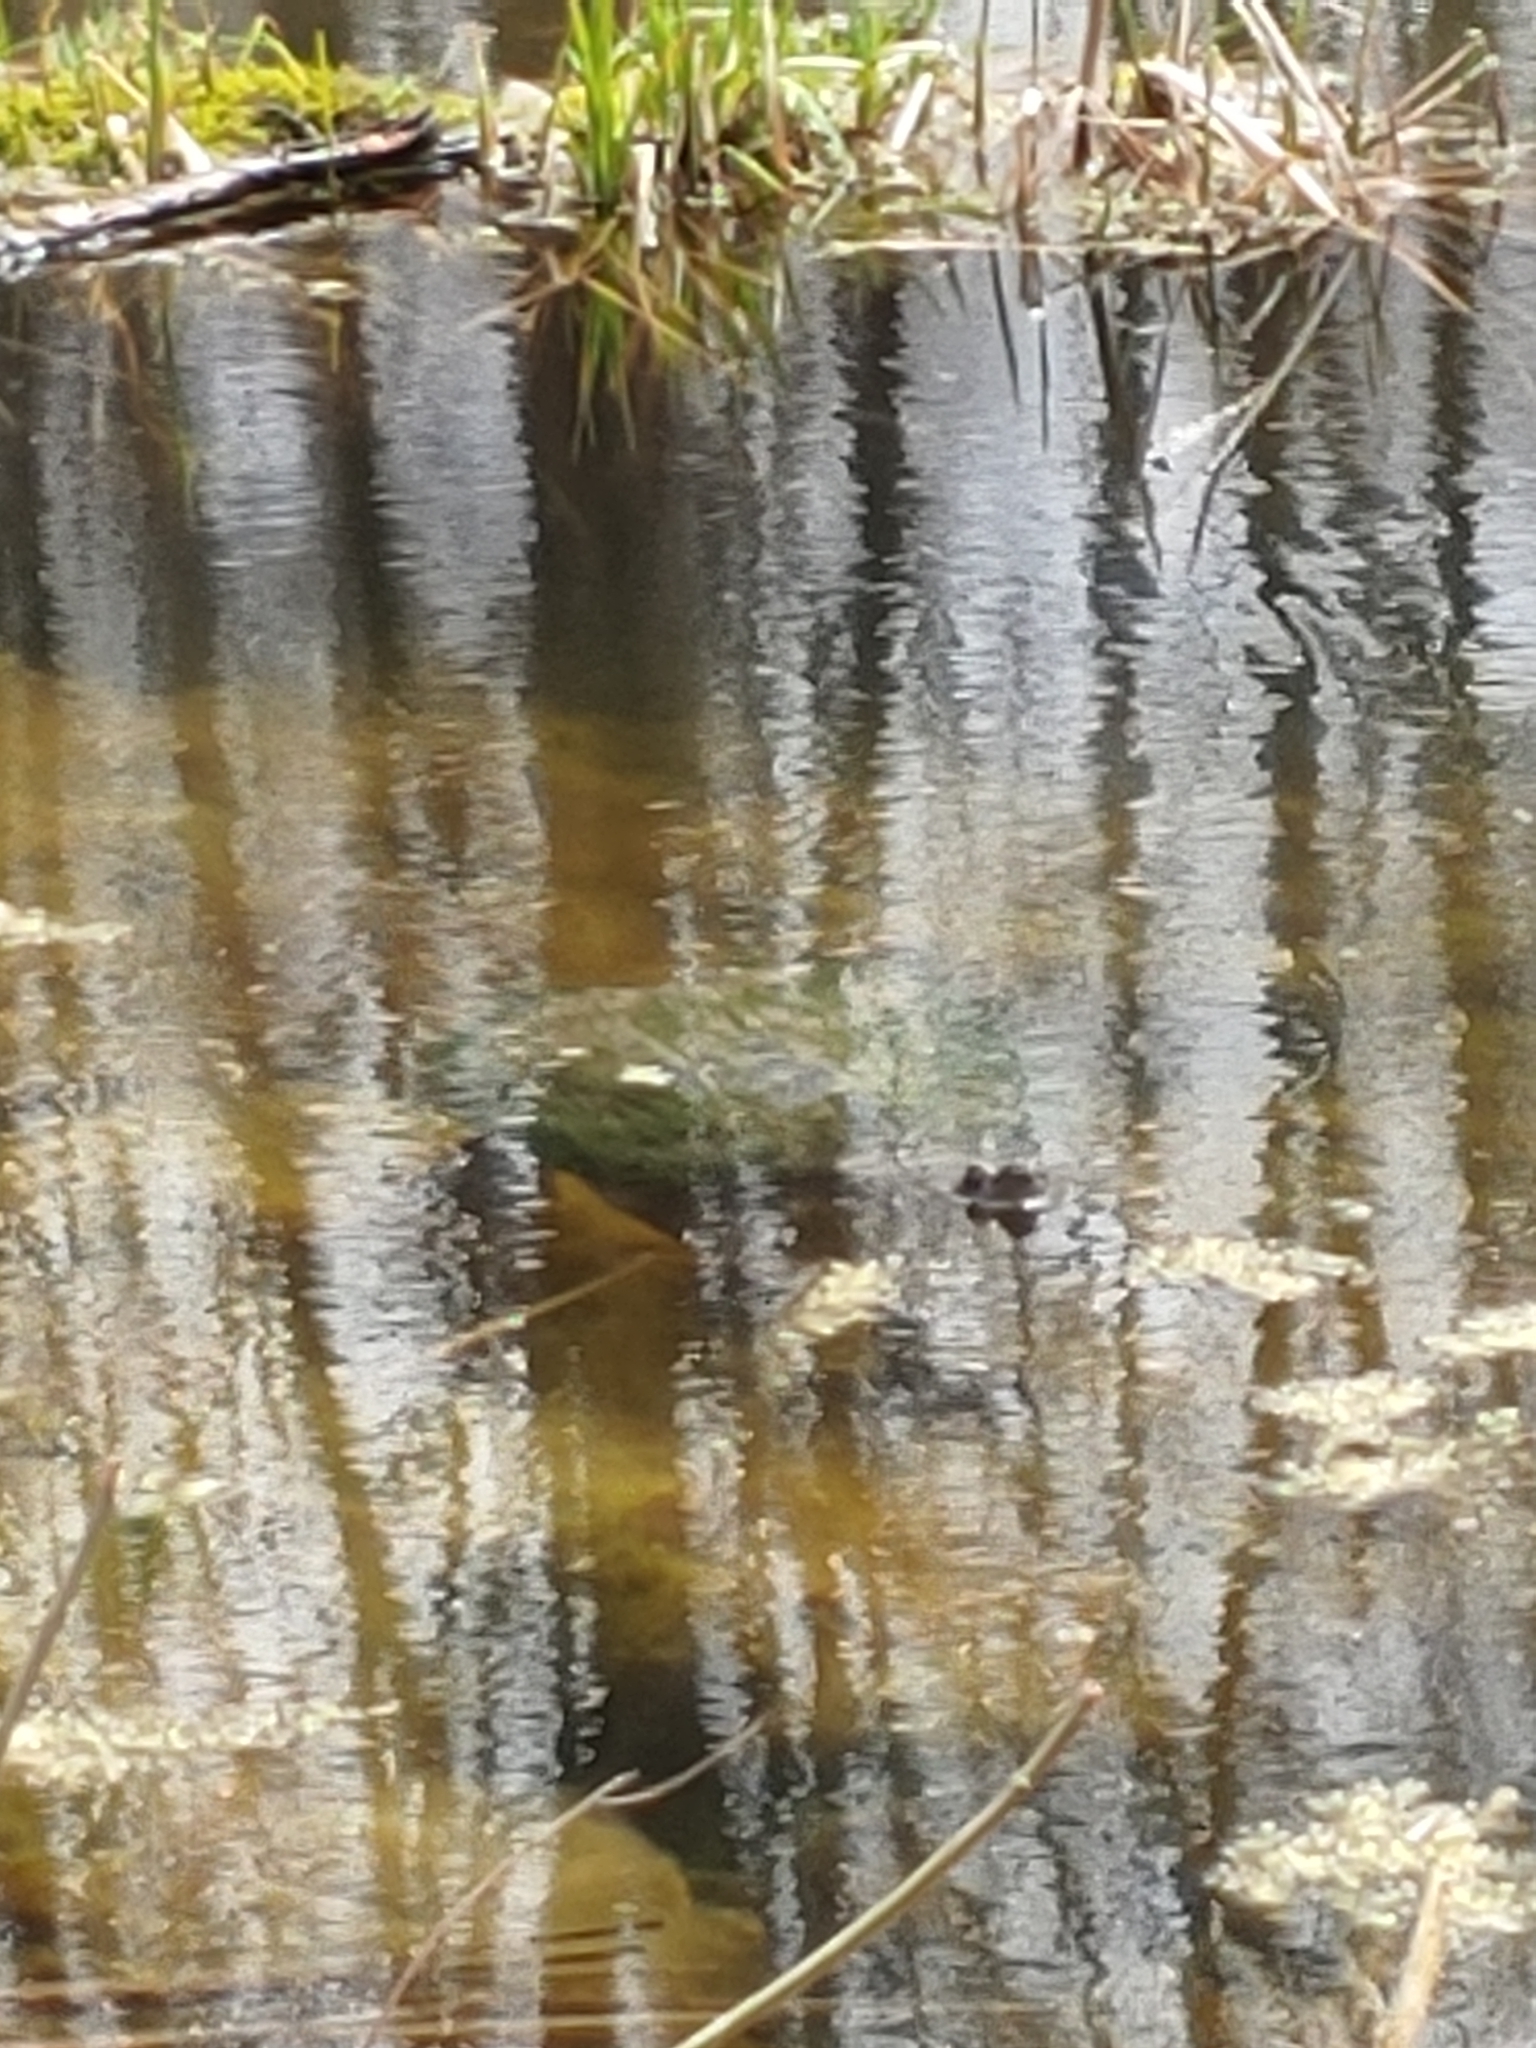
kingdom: Animalia
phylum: Chordata
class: Testudines
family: Chelydridae
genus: Chelydra
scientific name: Chelydra serpentina
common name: Common snapping turtle
